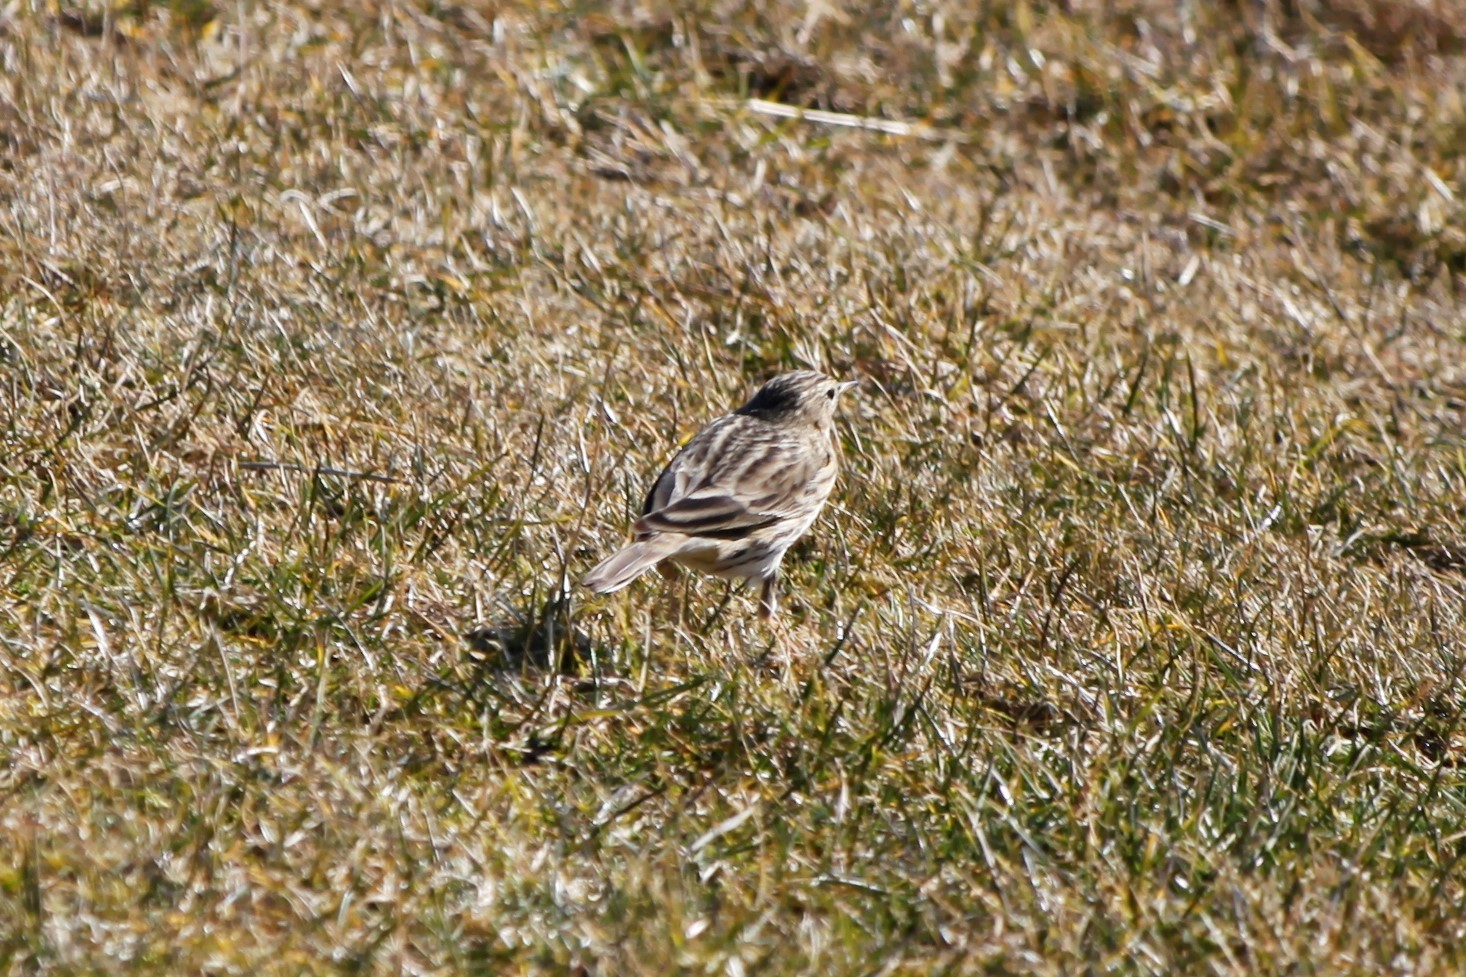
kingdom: Animalia
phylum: Chordata
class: Aves
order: Passeriformes
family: Motacillidae
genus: Anthus
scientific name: Anthus pratensis
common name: Meadow pipit
